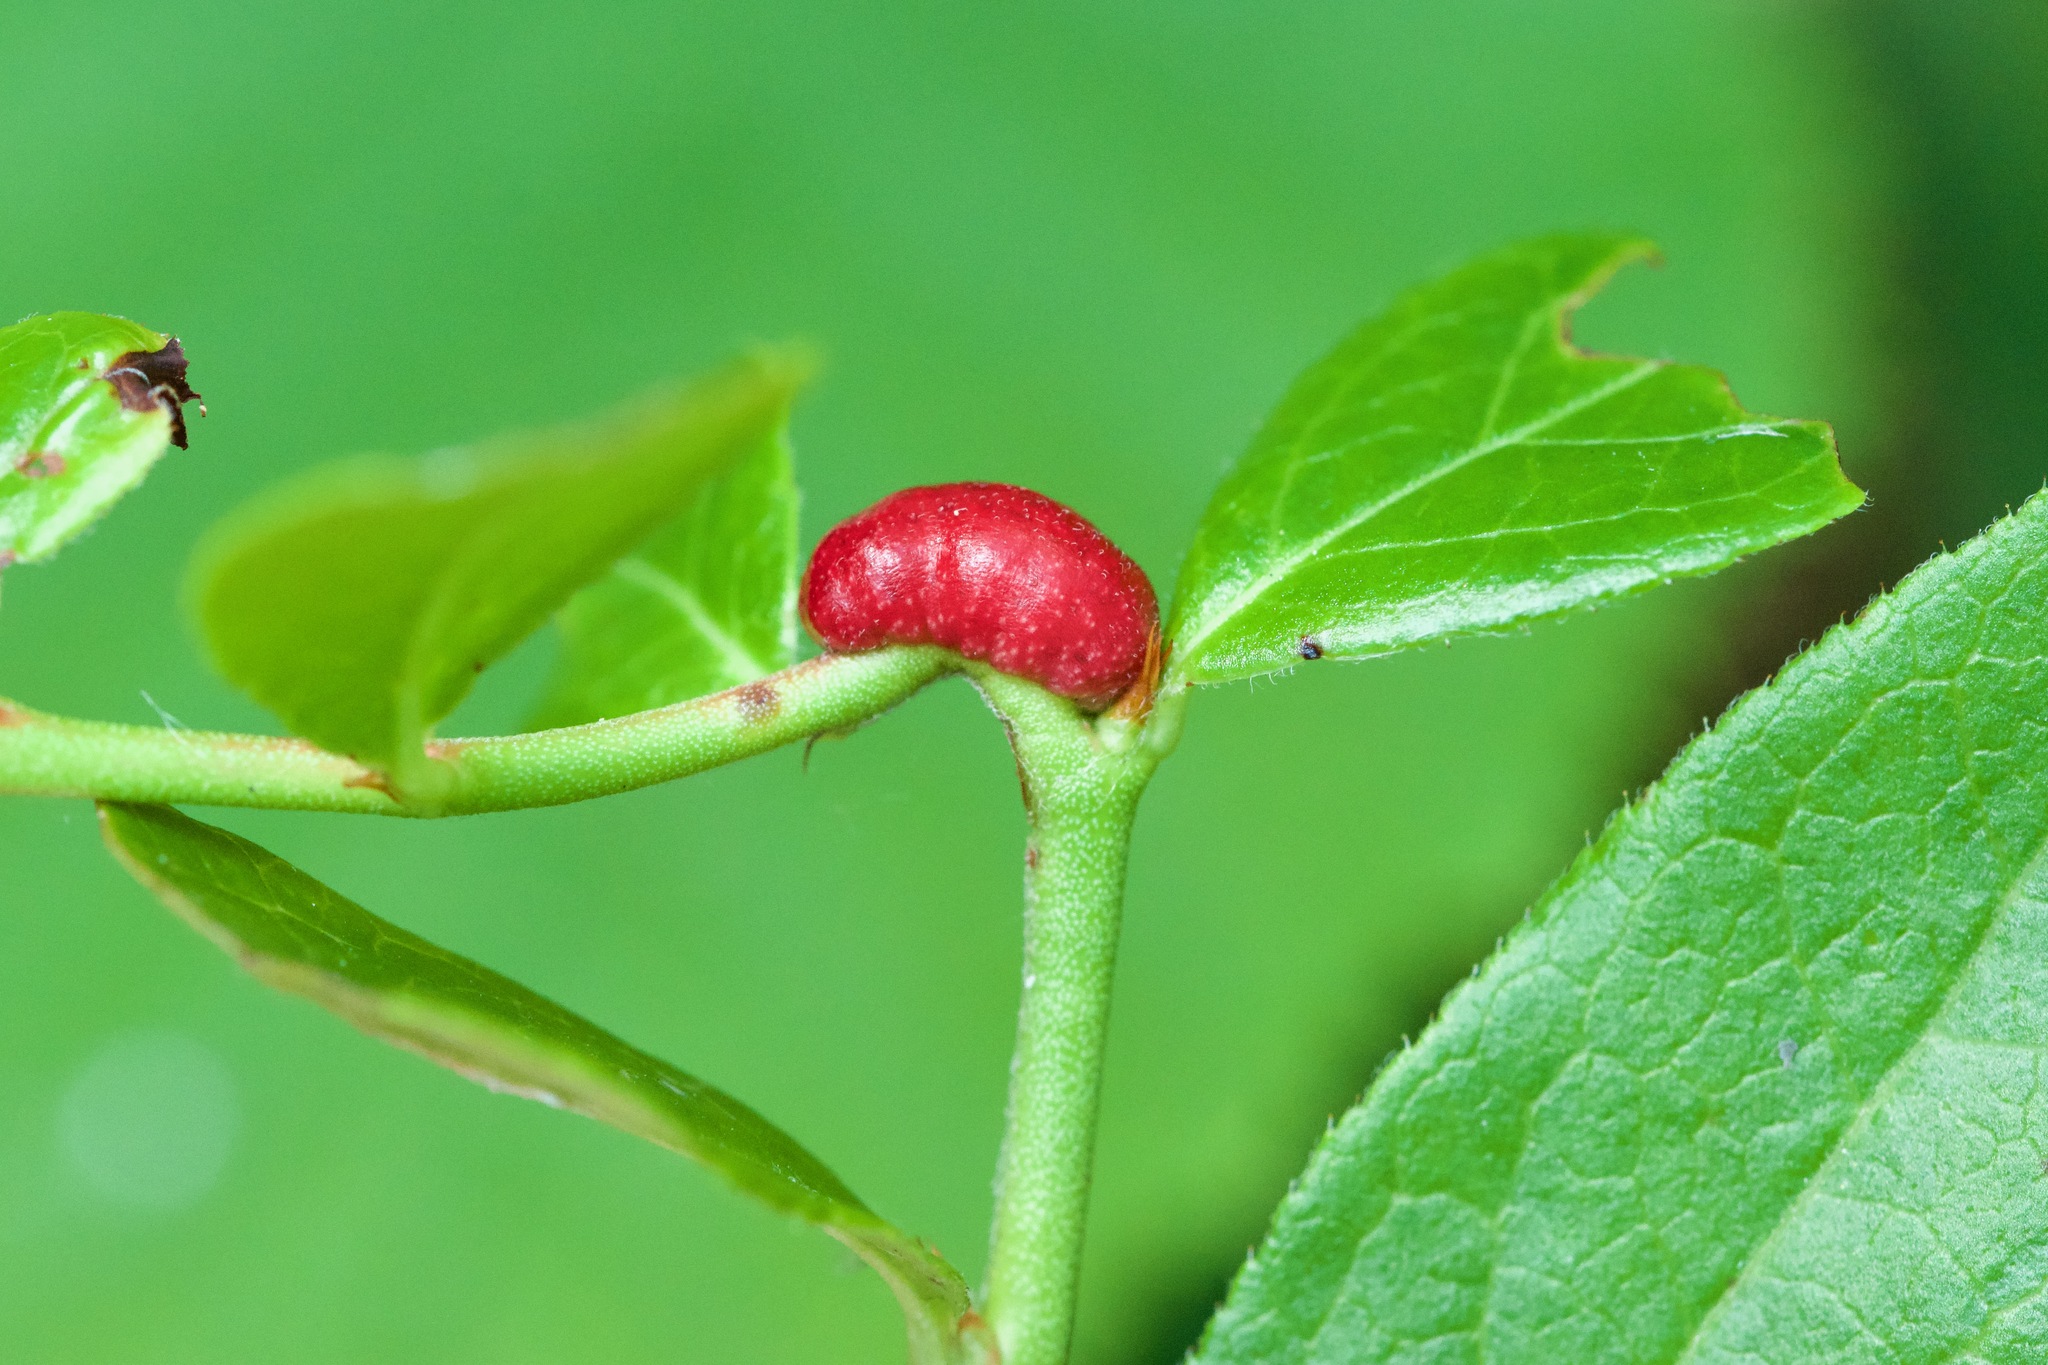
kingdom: Animalia
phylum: Arthropoda
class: Insecta
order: Hymenoptera
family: Pteromalidae
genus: Hemadas
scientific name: Hemadas nubilipennis
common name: Blueberry stem gall wasp
